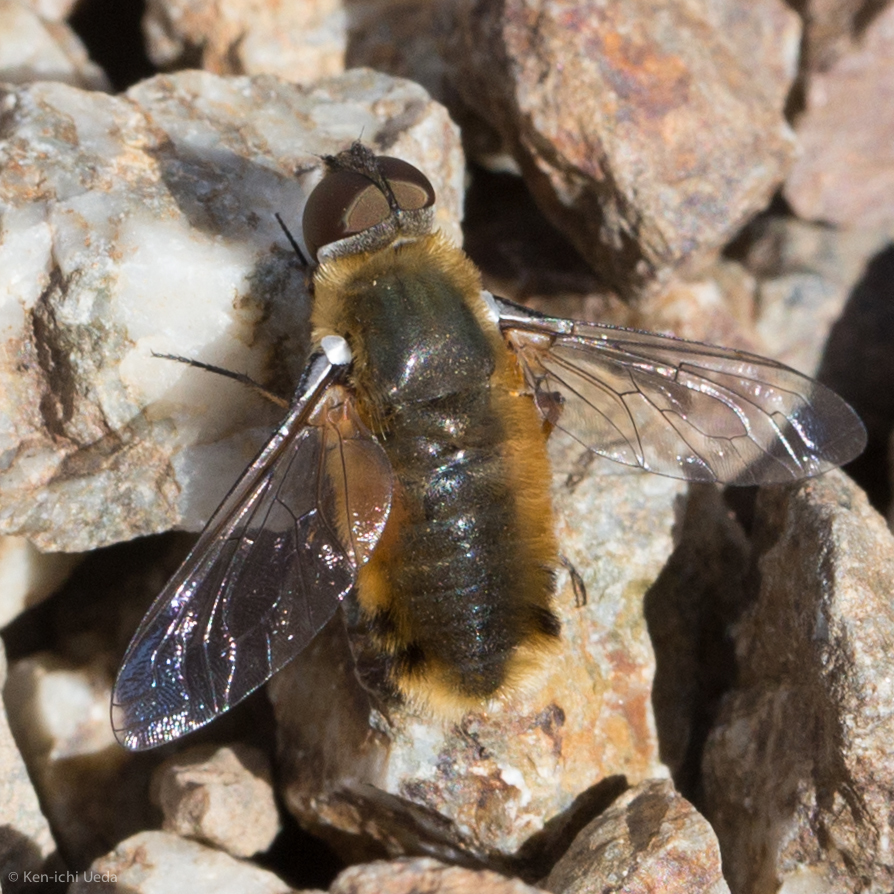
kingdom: Animalia
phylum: Arthropoda
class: Insecta
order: Diptera
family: Bombyliidae
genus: Villa
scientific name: Villa agrippina
